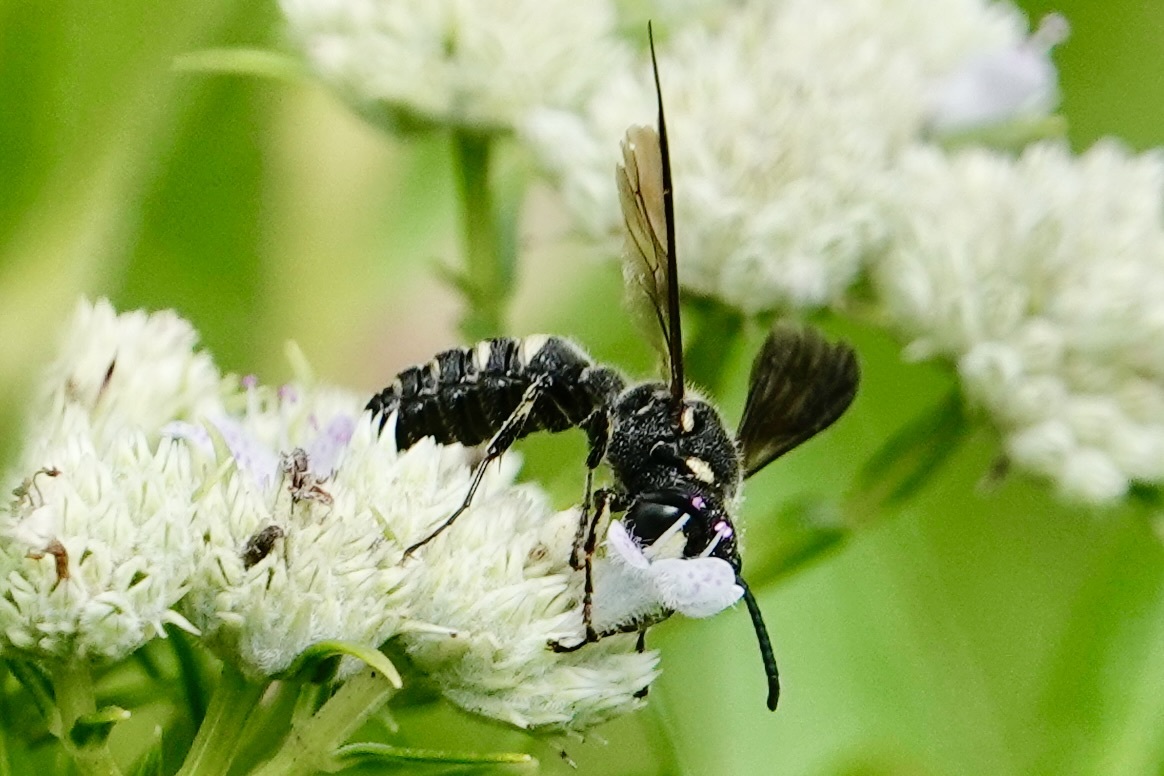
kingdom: Animalia
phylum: Arthropoda
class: Insecta
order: Hymenoptera
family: Crabronidae
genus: Cerceris
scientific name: Cerceris fumipennis
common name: Smokey-winged beetle bandit wasp
